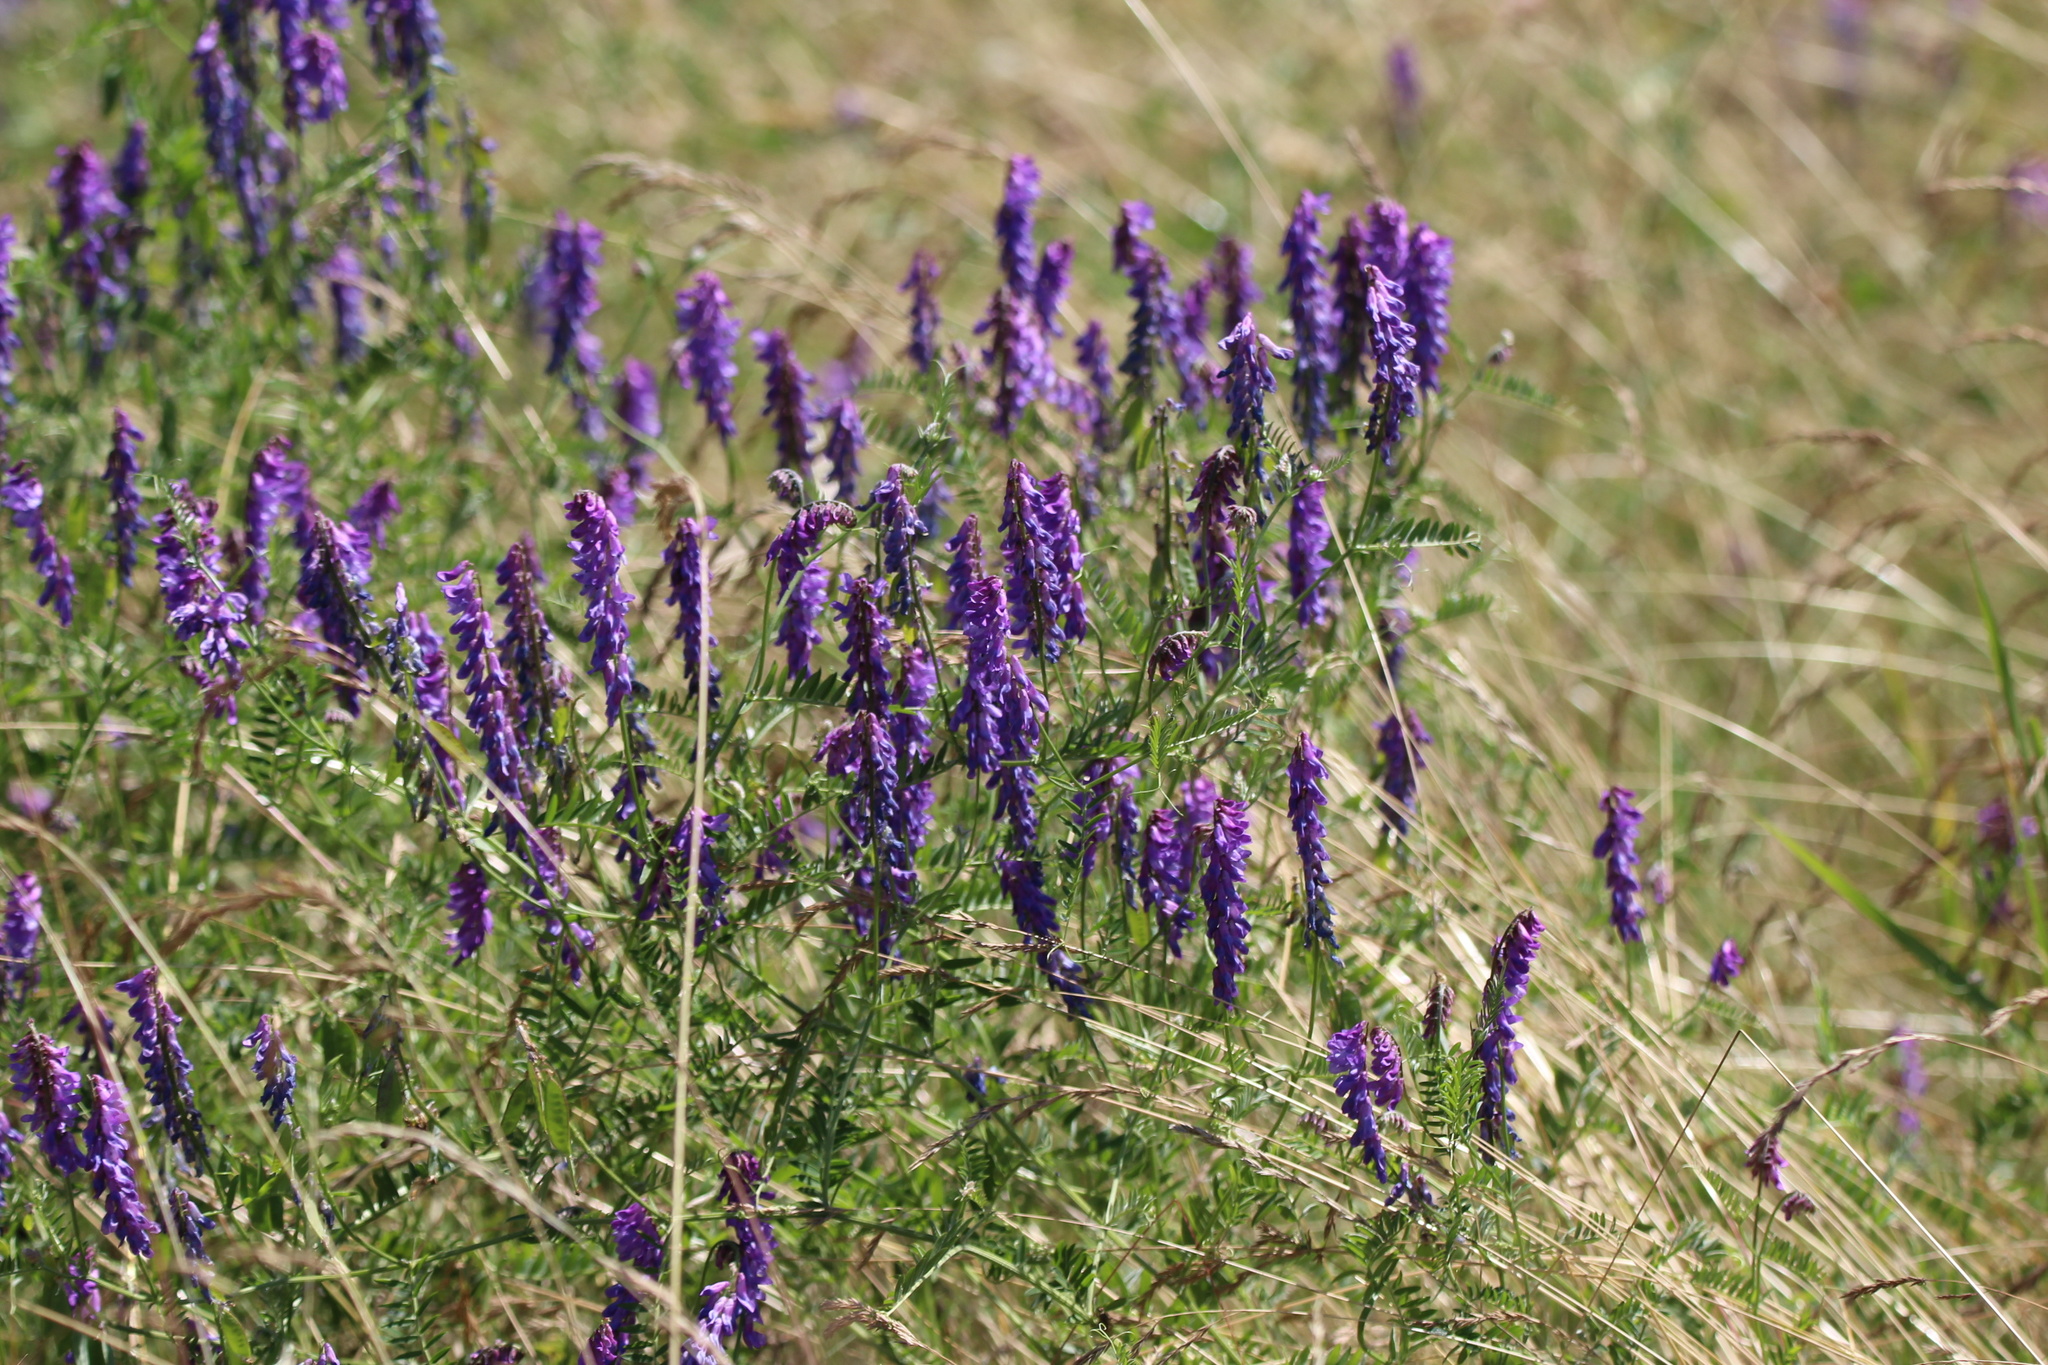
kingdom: Plantae
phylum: Tracheophyta
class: Magnoliopsida
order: Fabales
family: Fabaceae
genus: Vicia
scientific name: Vicia cracca
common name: Bird vetch
